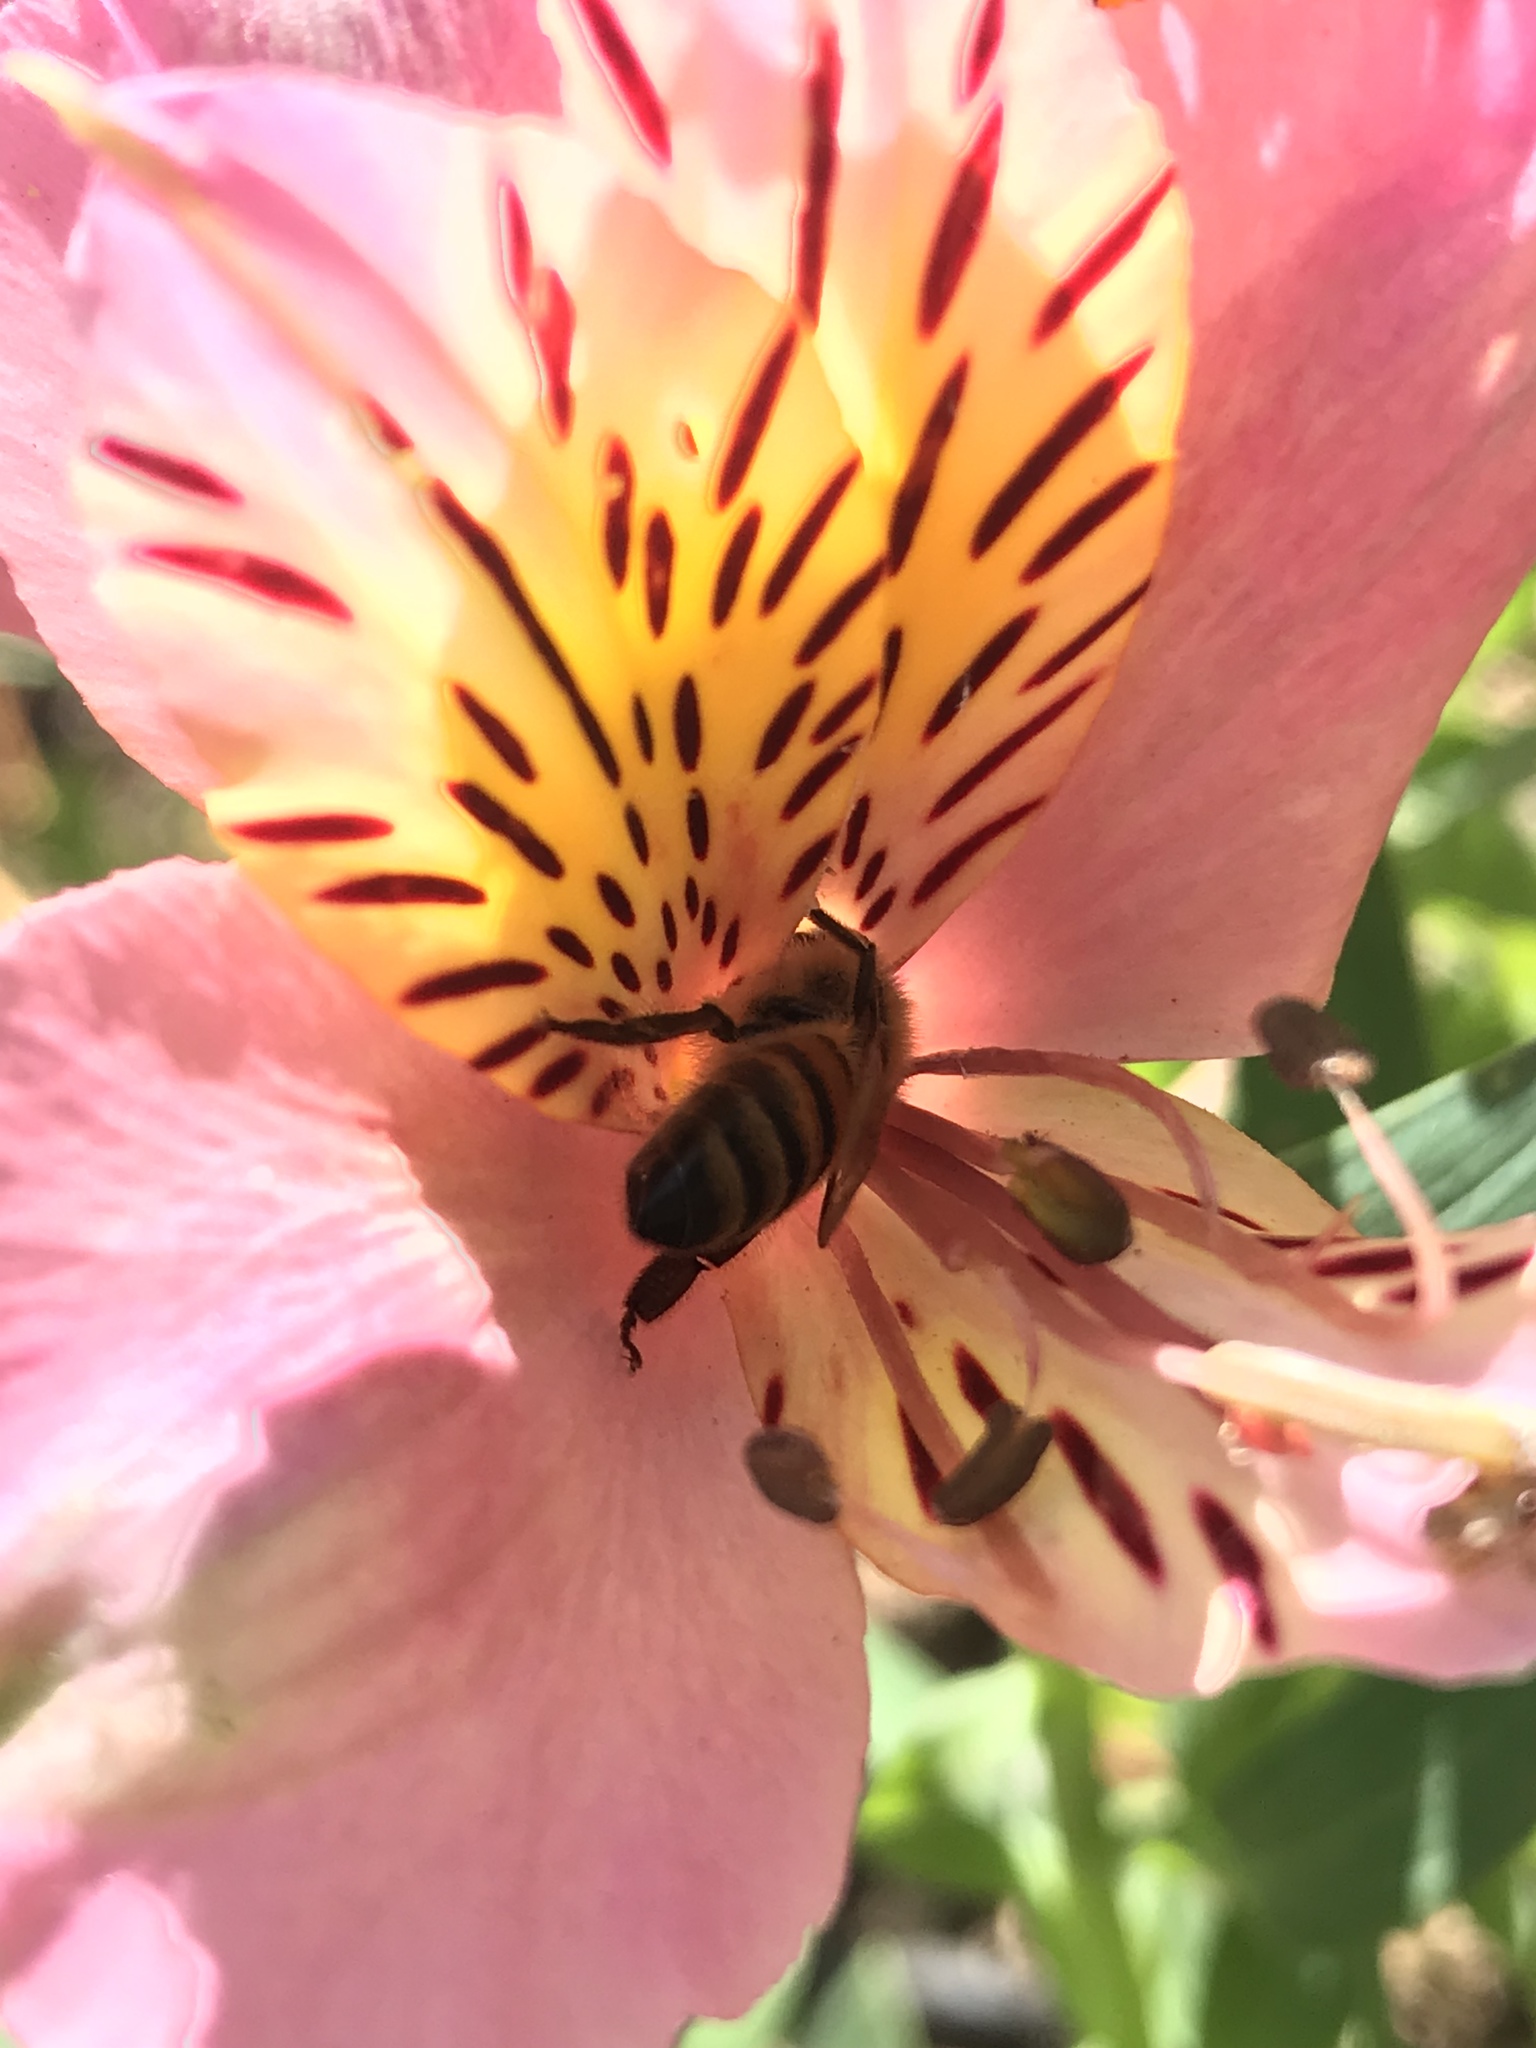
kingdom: Animalia
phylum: Arthropoda
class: Insecta
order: Hymenoptera
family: Apidae
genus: Apis
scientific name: Apis mellifera
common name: Honey bee
